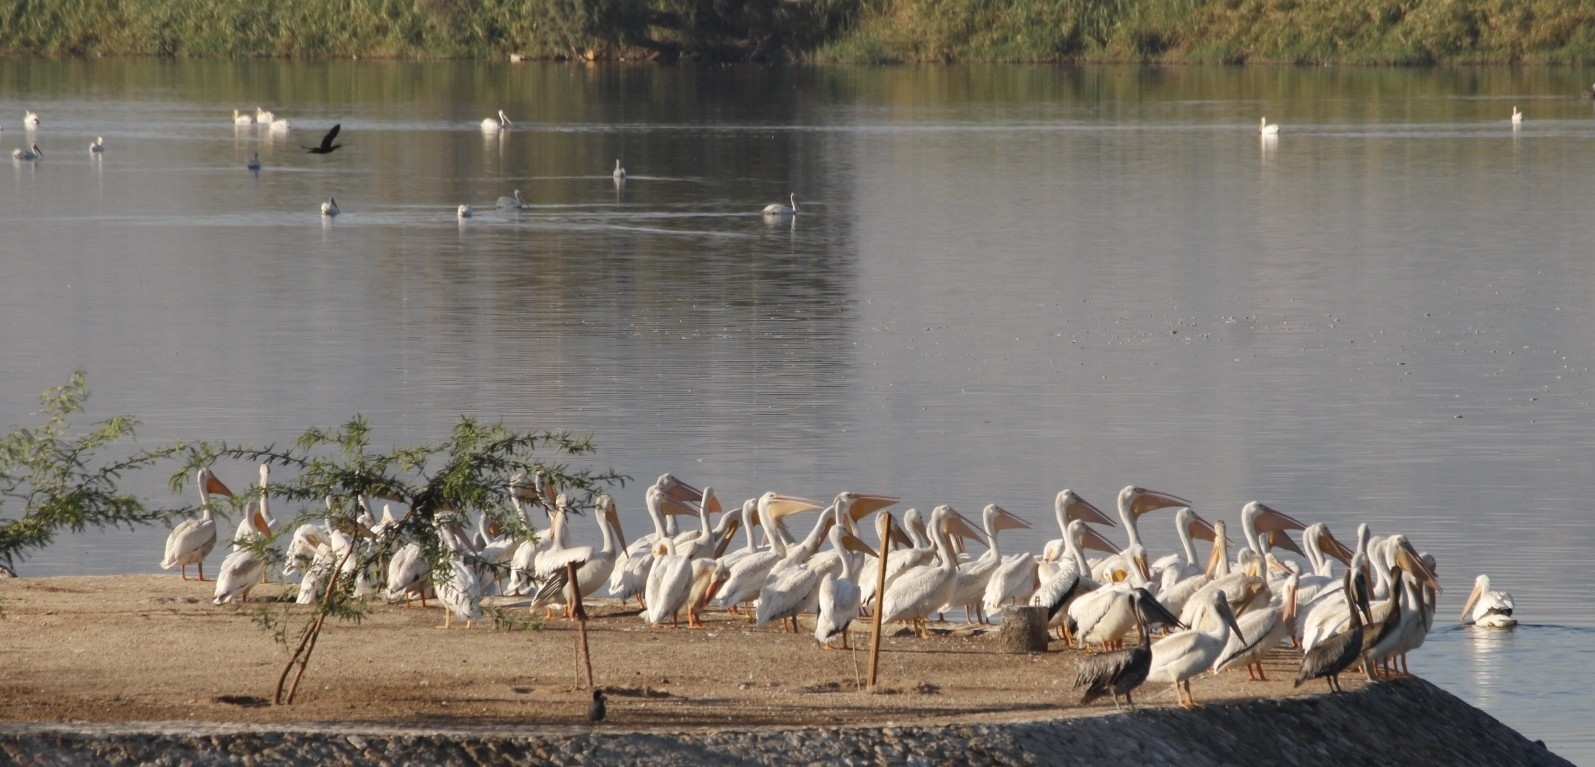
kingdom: Animalia
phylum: Chordata
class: Aves
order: Pelecaniformes
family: Pelecanidae
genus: Pelecanus
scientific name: Pelecanus erythrorhynchos
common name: American white pelican
